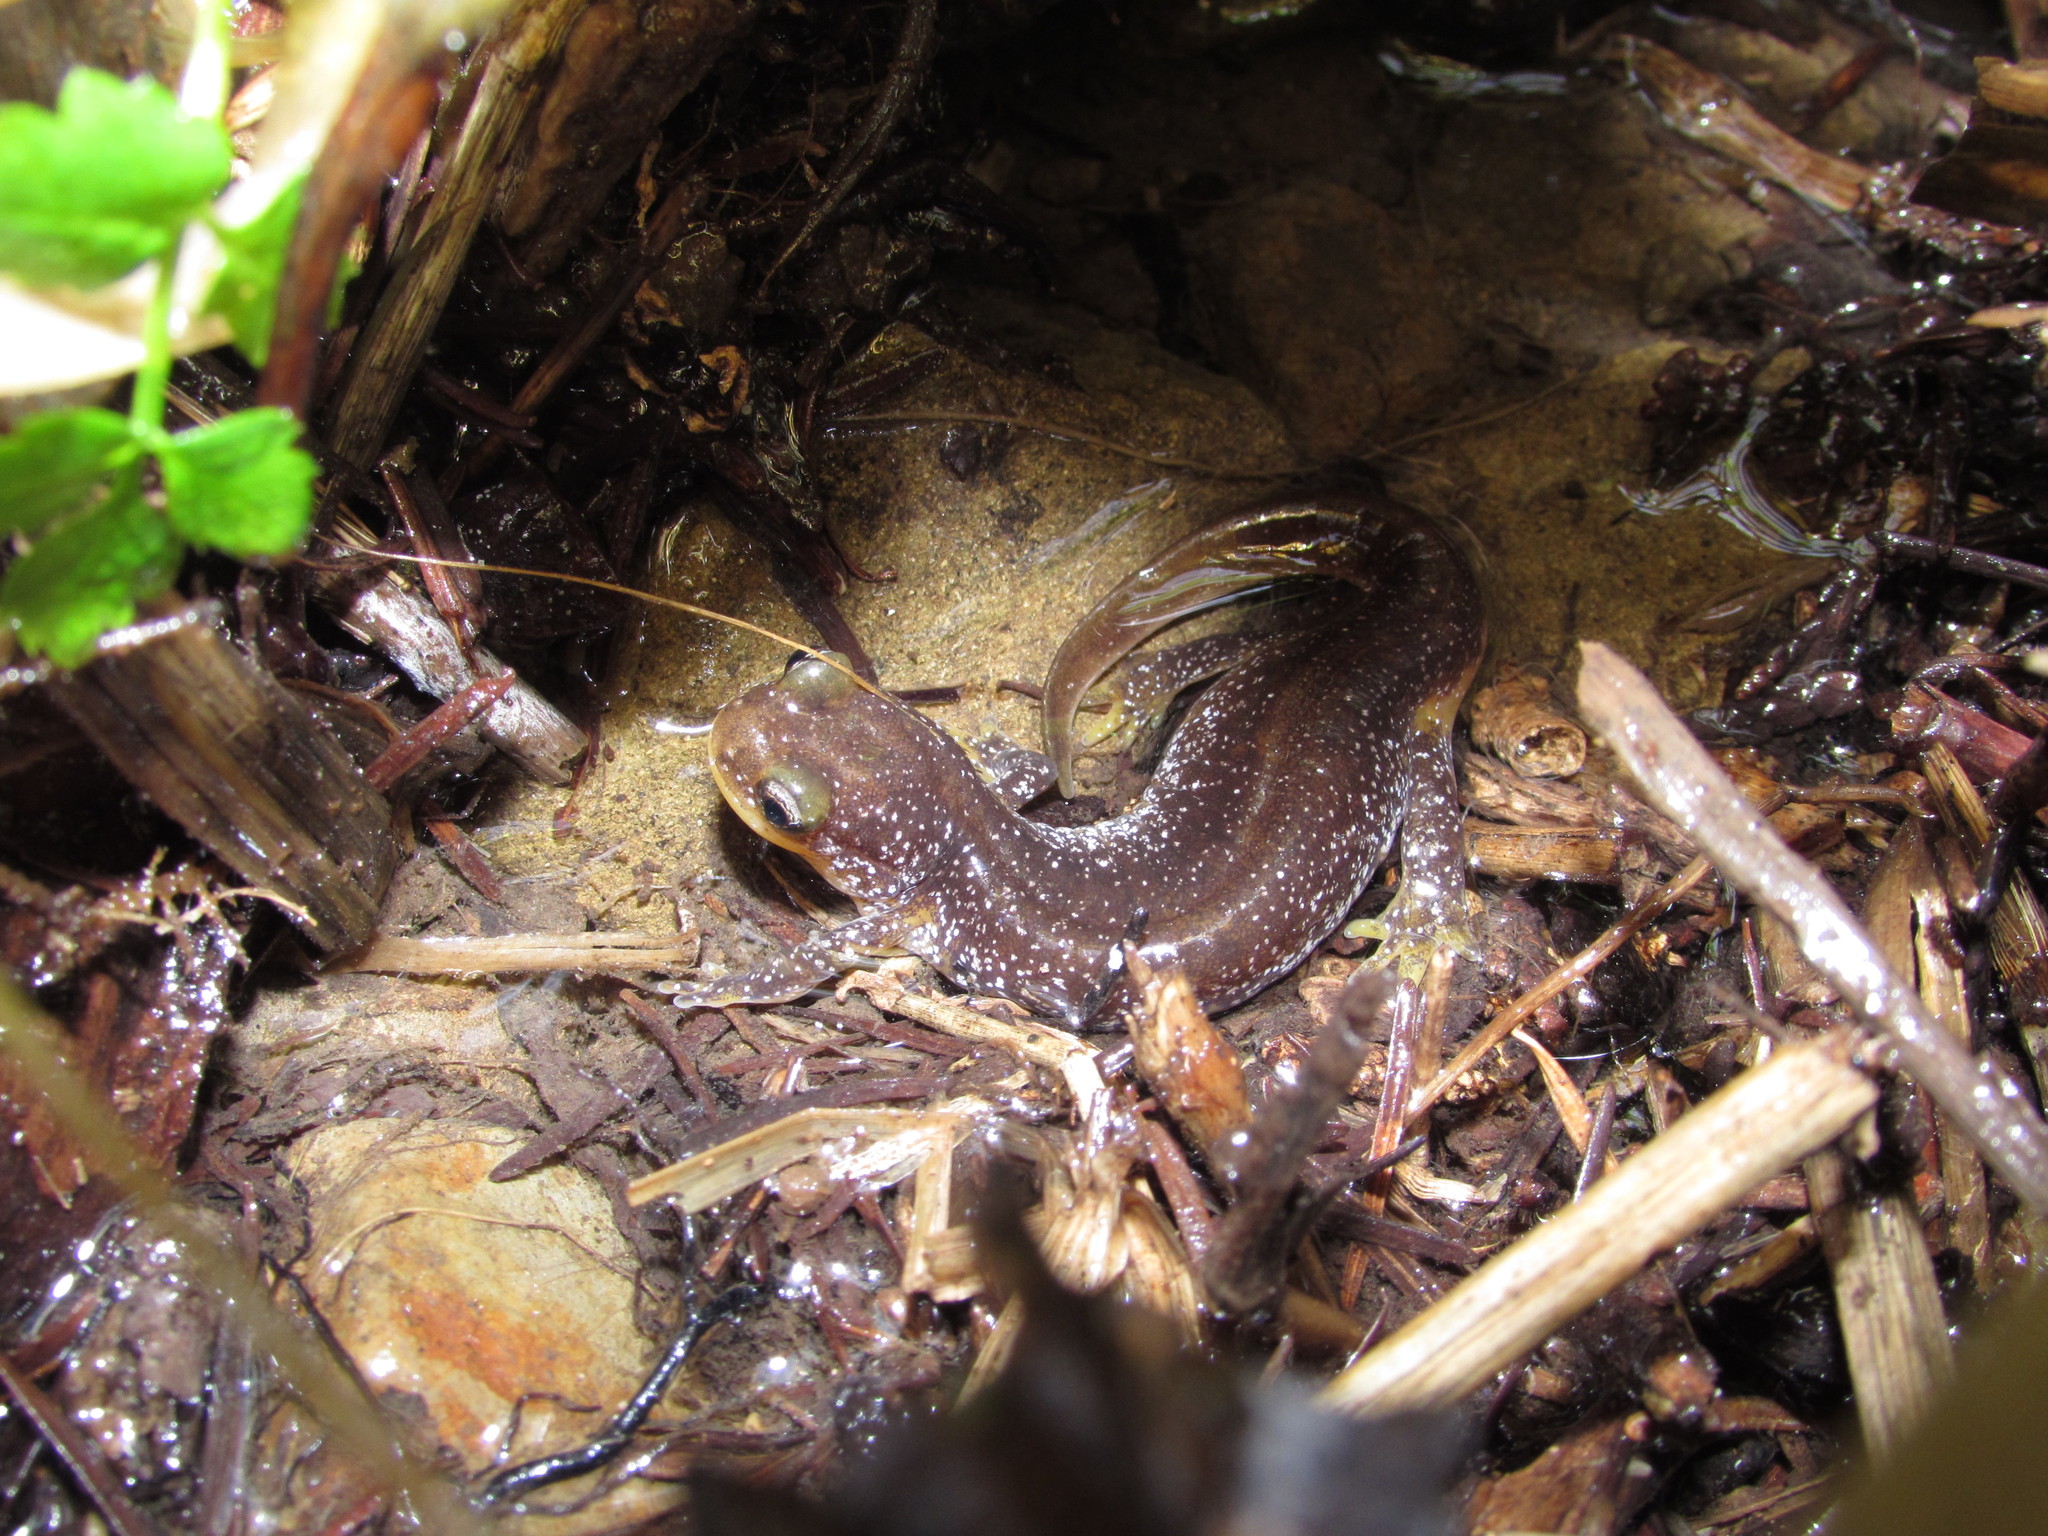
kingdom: Animalia
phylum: Chordata
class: Amphibia
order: Caudata
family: Rhyacotritonidae
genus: Rhyacotriton
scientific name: Rhyacotriton kezeri
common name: Columbia torrent salamander
